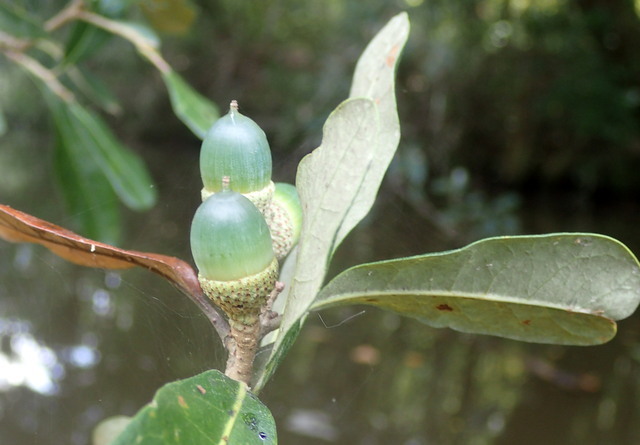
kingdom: Plantae
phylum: Tracheophyta
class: Magnoliopsida
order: Fagales
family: Fagaceae
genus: Quercus
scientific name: Quercus virginiana
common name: Southern live oak
